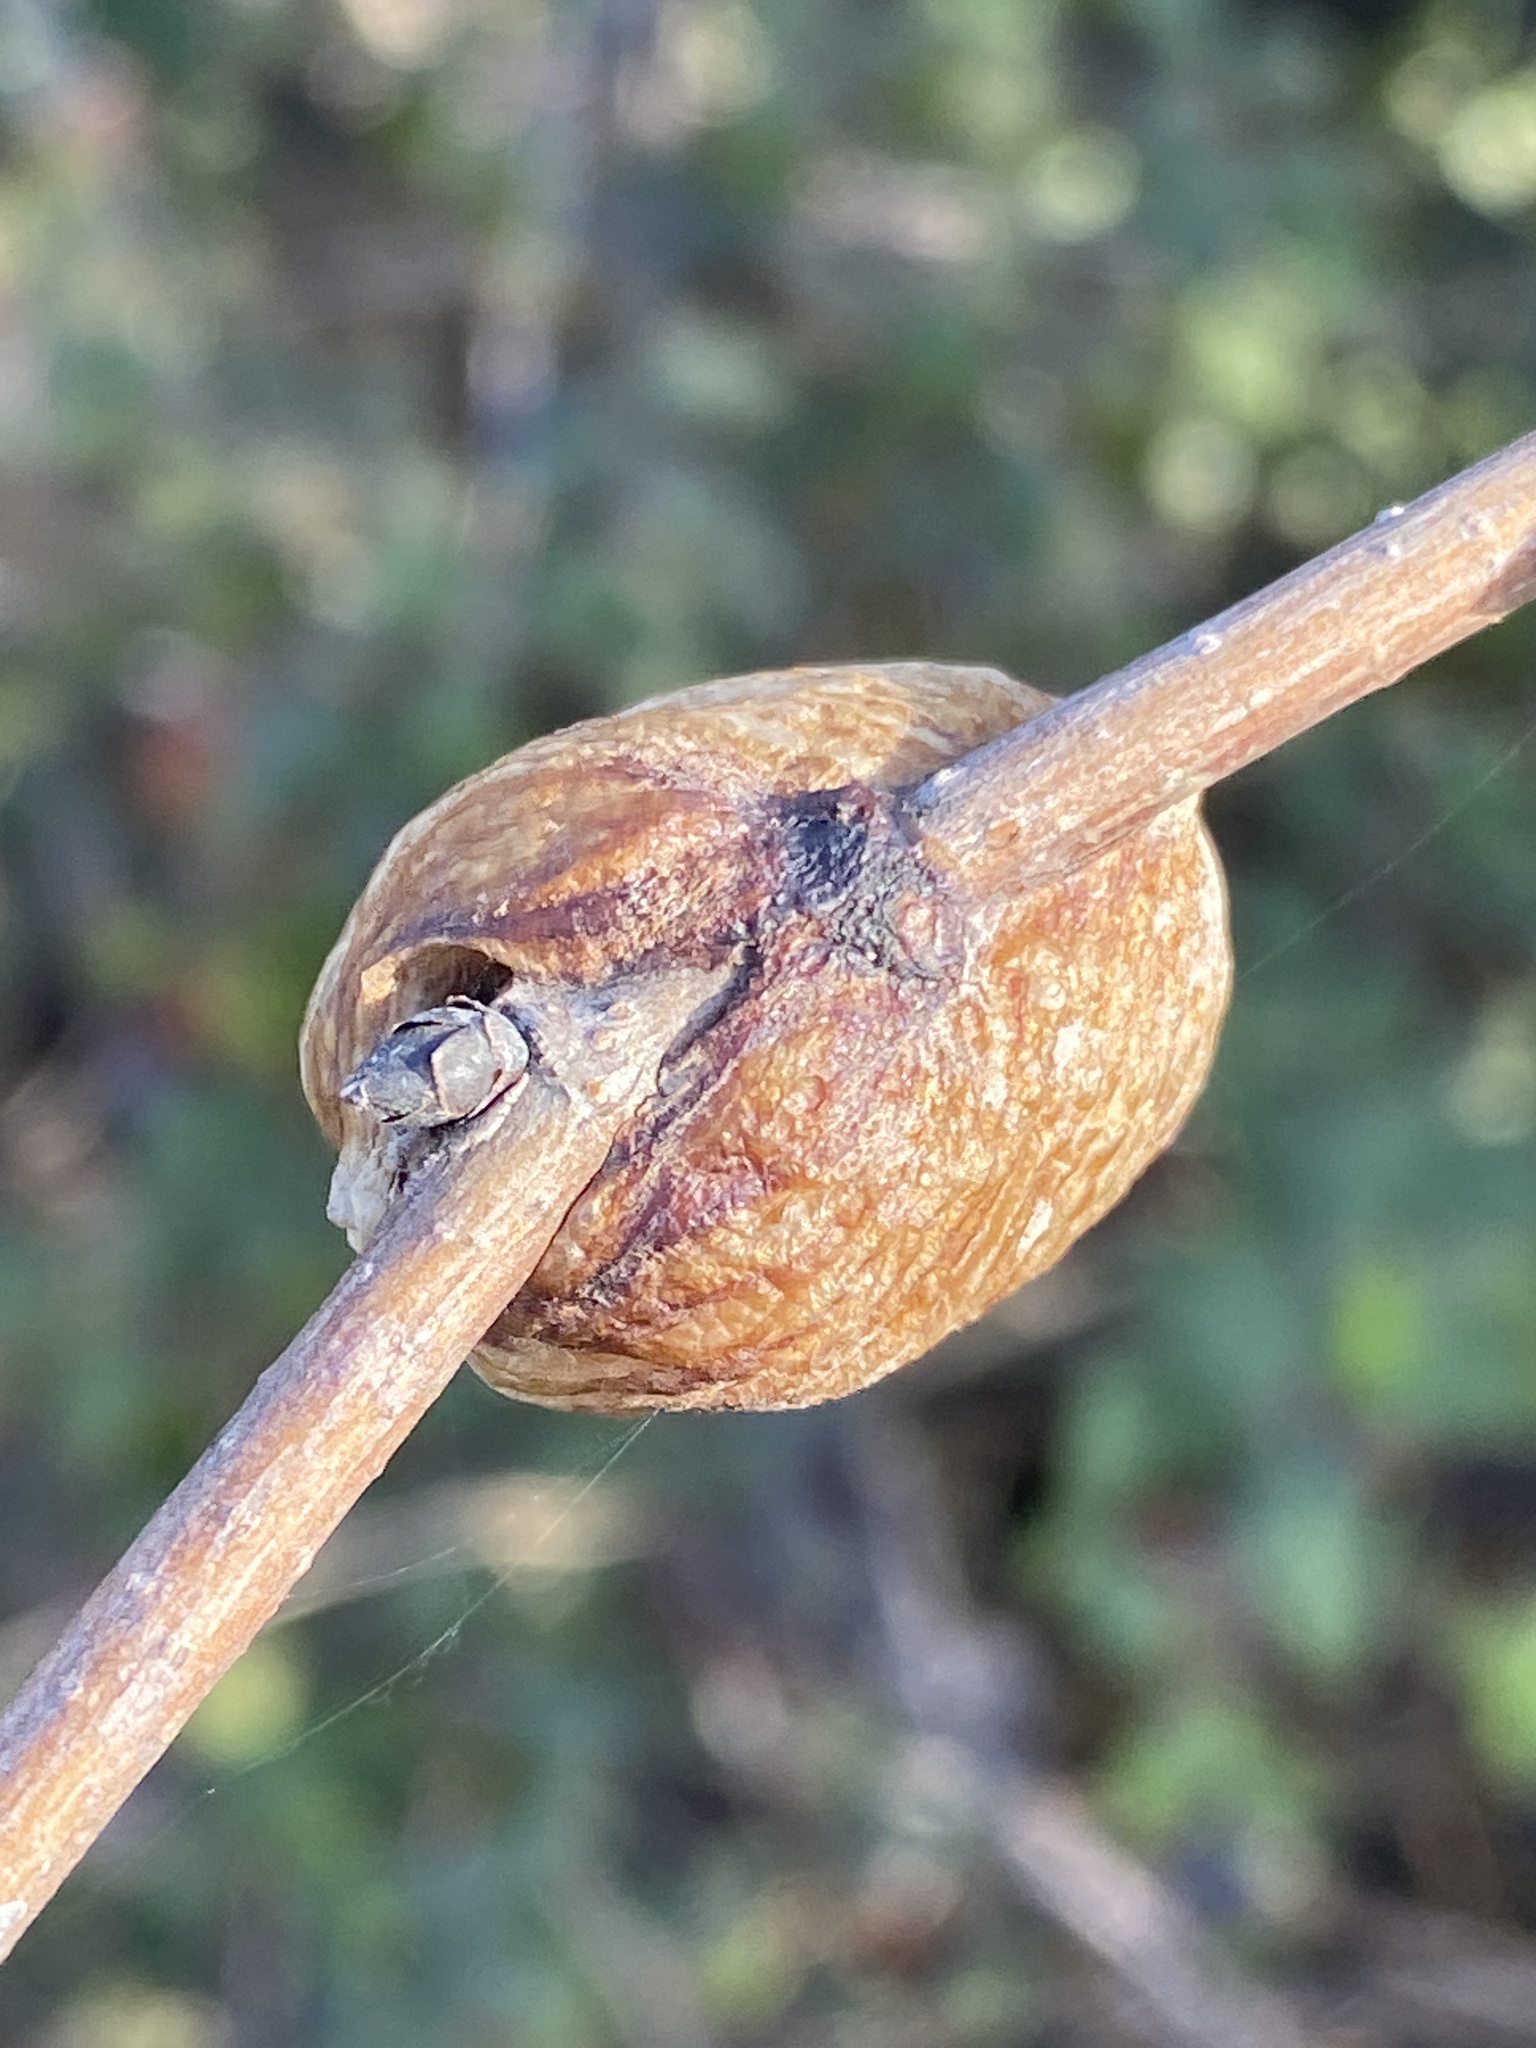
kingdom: Animalia
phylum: Arthropoda
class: Insecta
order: Mantodea
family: Mantidae
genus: Hierodula
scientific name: Hierodula transcaucasica
